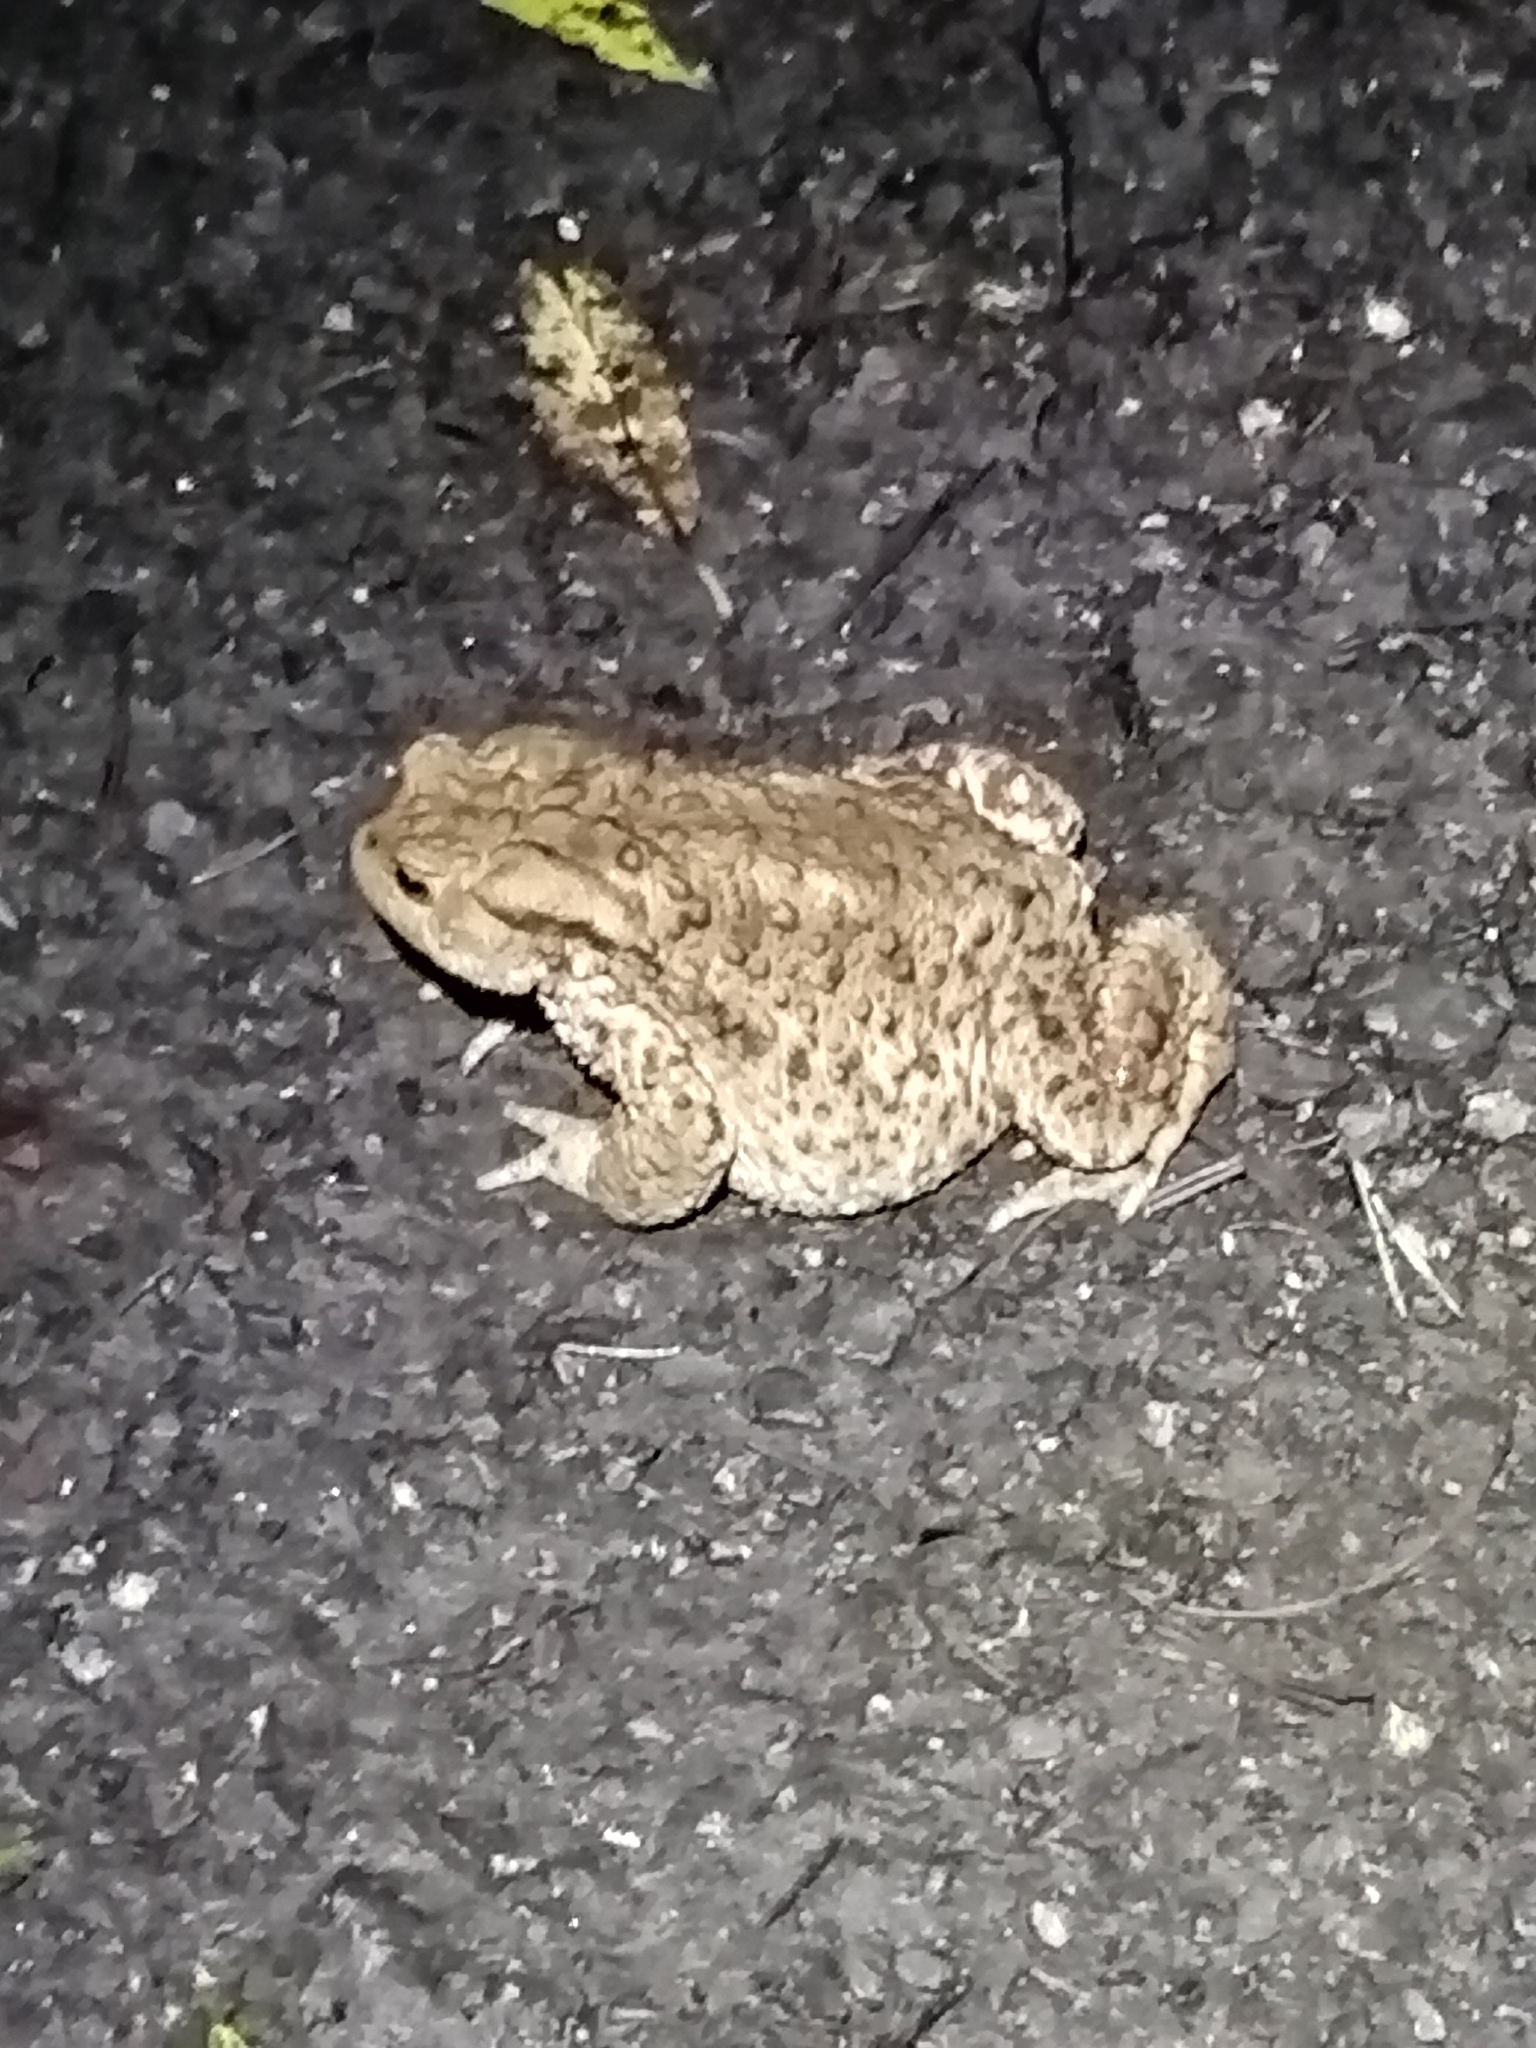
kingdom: Animalia
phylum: Chordata
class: Amphibia
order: Anura
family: Bufonidae
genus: Bufo
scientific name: Bufo bufo
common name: Common toad
